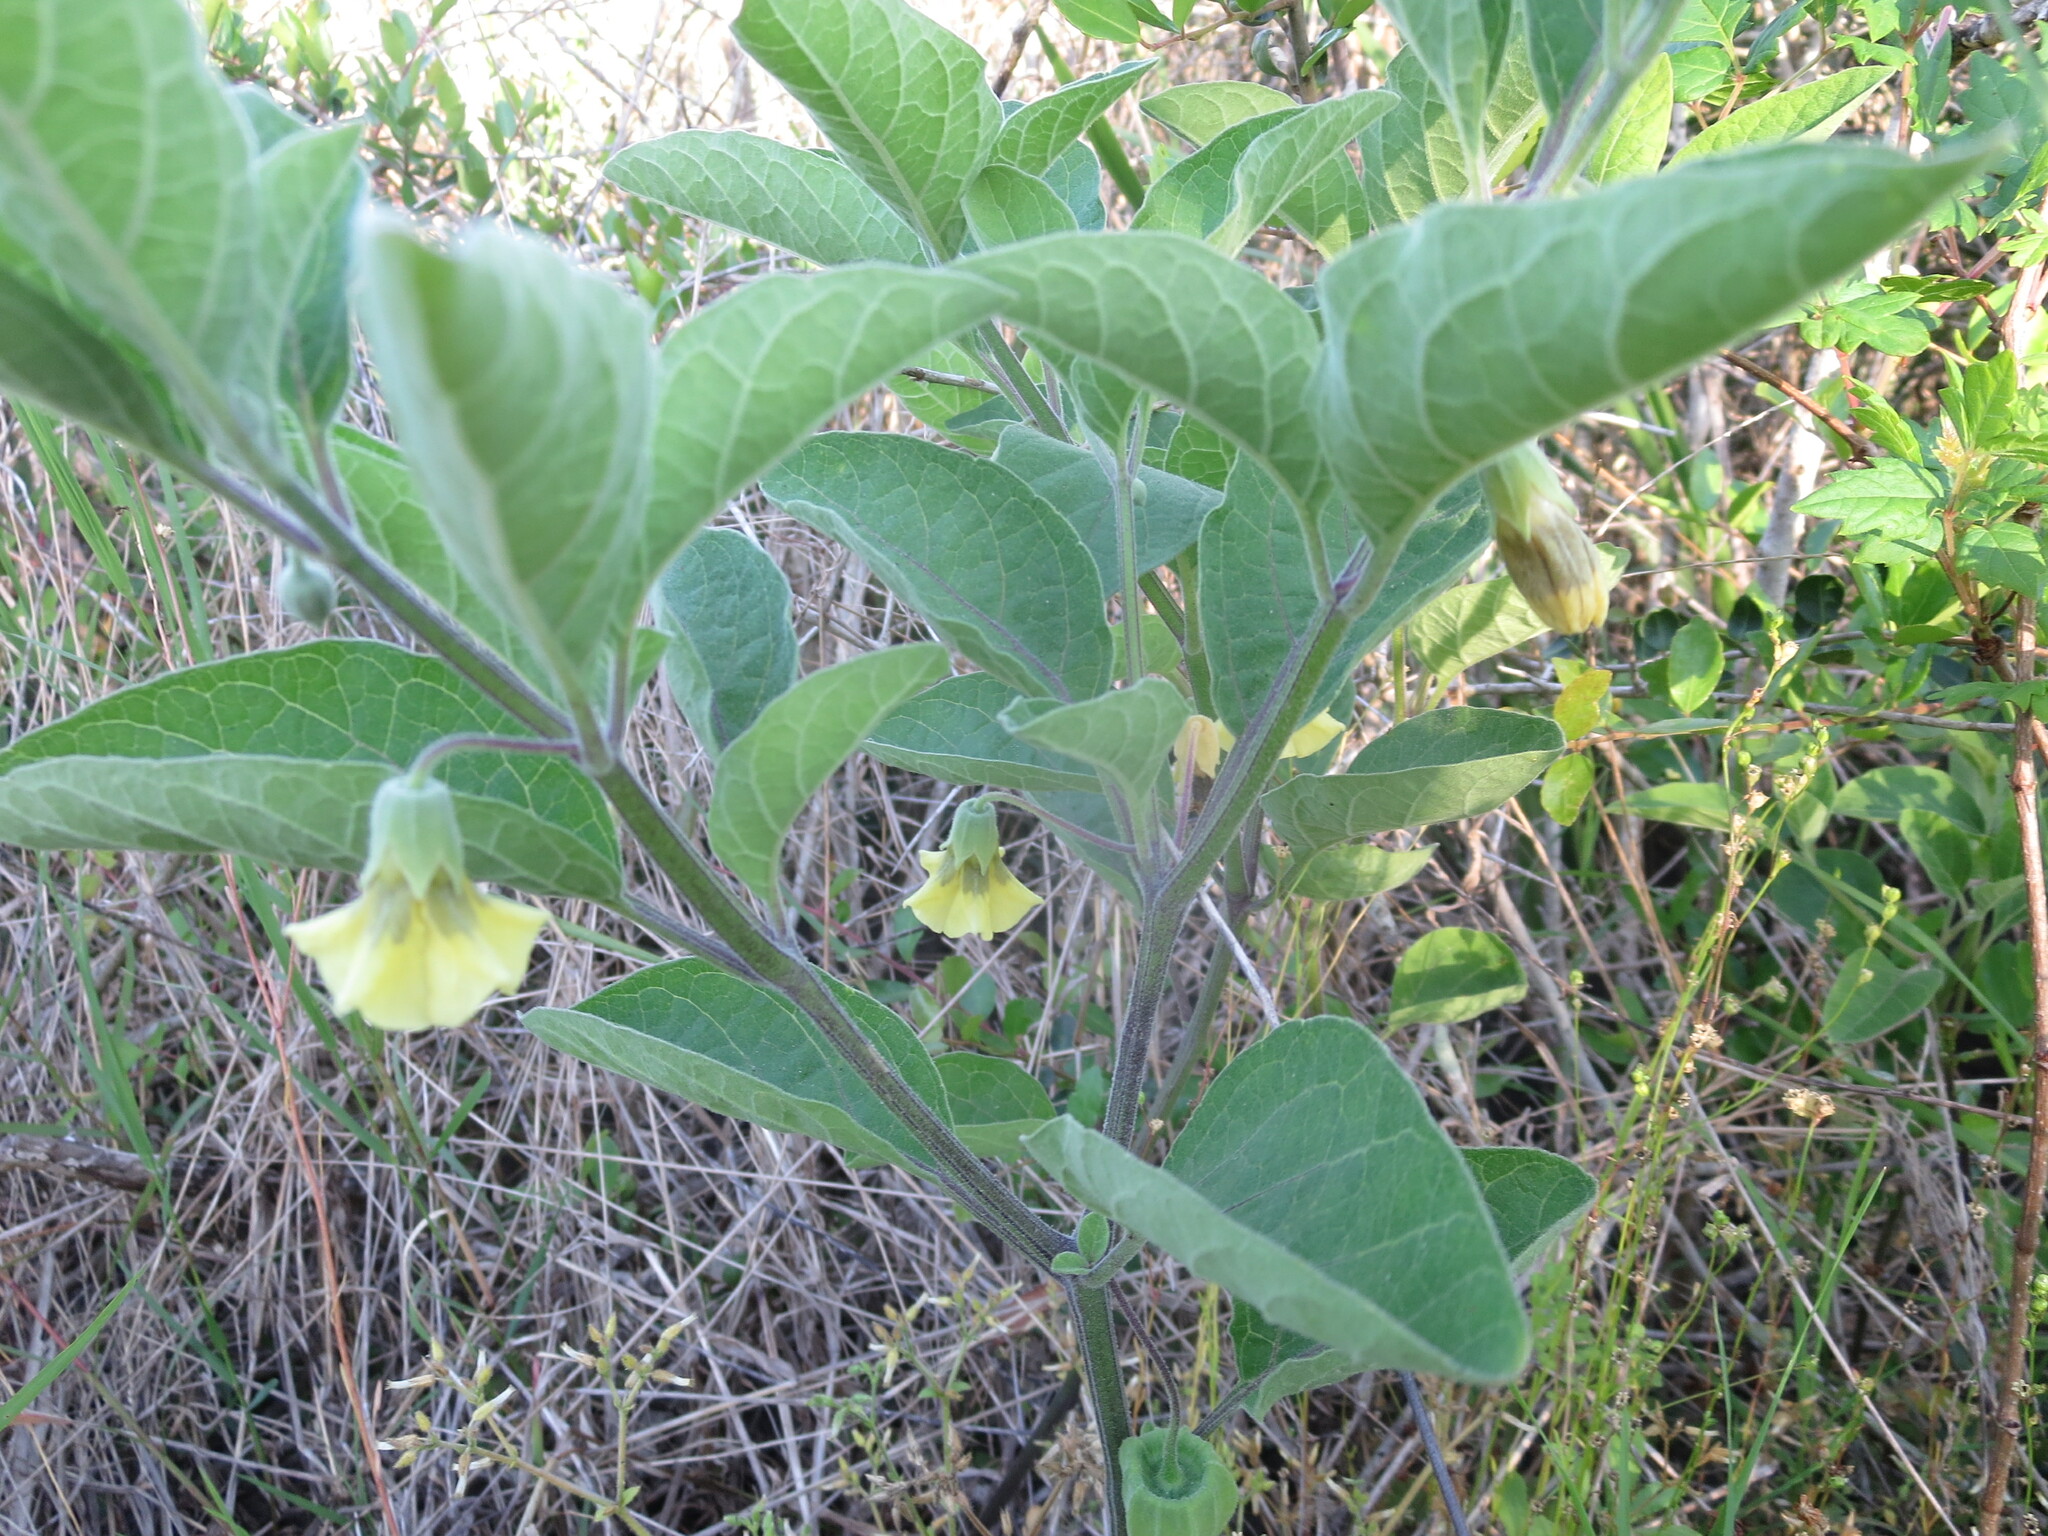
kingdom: Plantae
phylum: Tracheophyta
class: Magnoliopsida
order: Solanales
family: Solanaceae
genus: Physalis
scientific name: Physalis walteri
